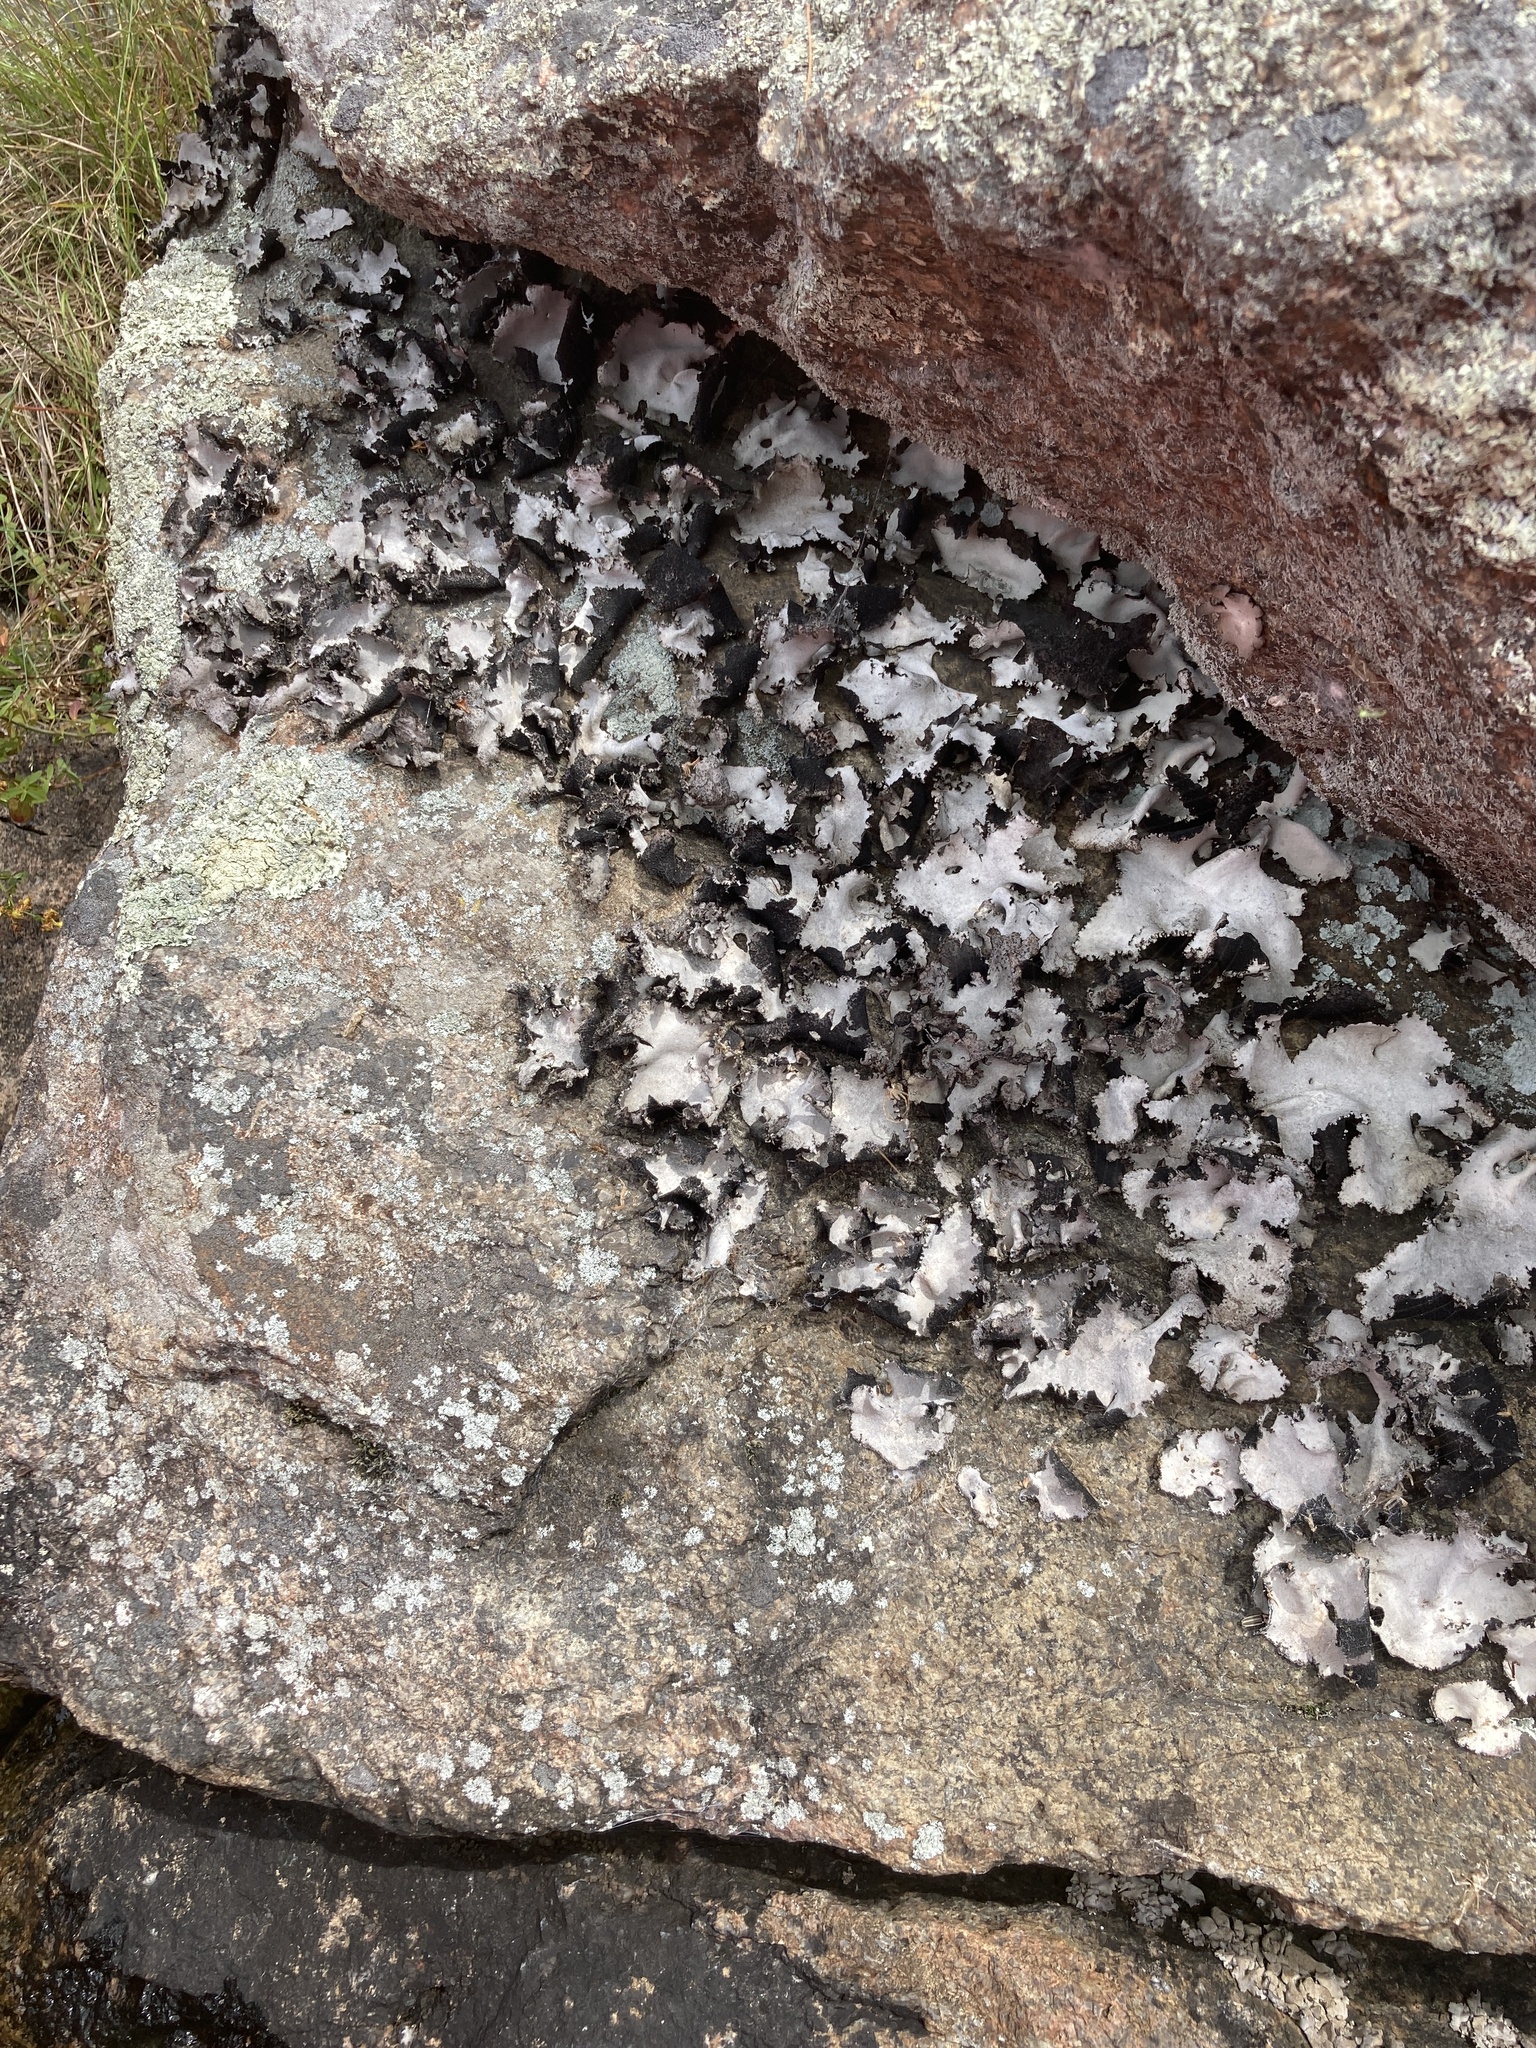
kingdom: Fungi
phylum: Ascomycota
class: Lecanoromycetes
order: Umbilicariales
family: Umbilicariaceae
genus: Umbilicaria
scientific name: Umbilicaria americana
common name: Frosted rock tripe
